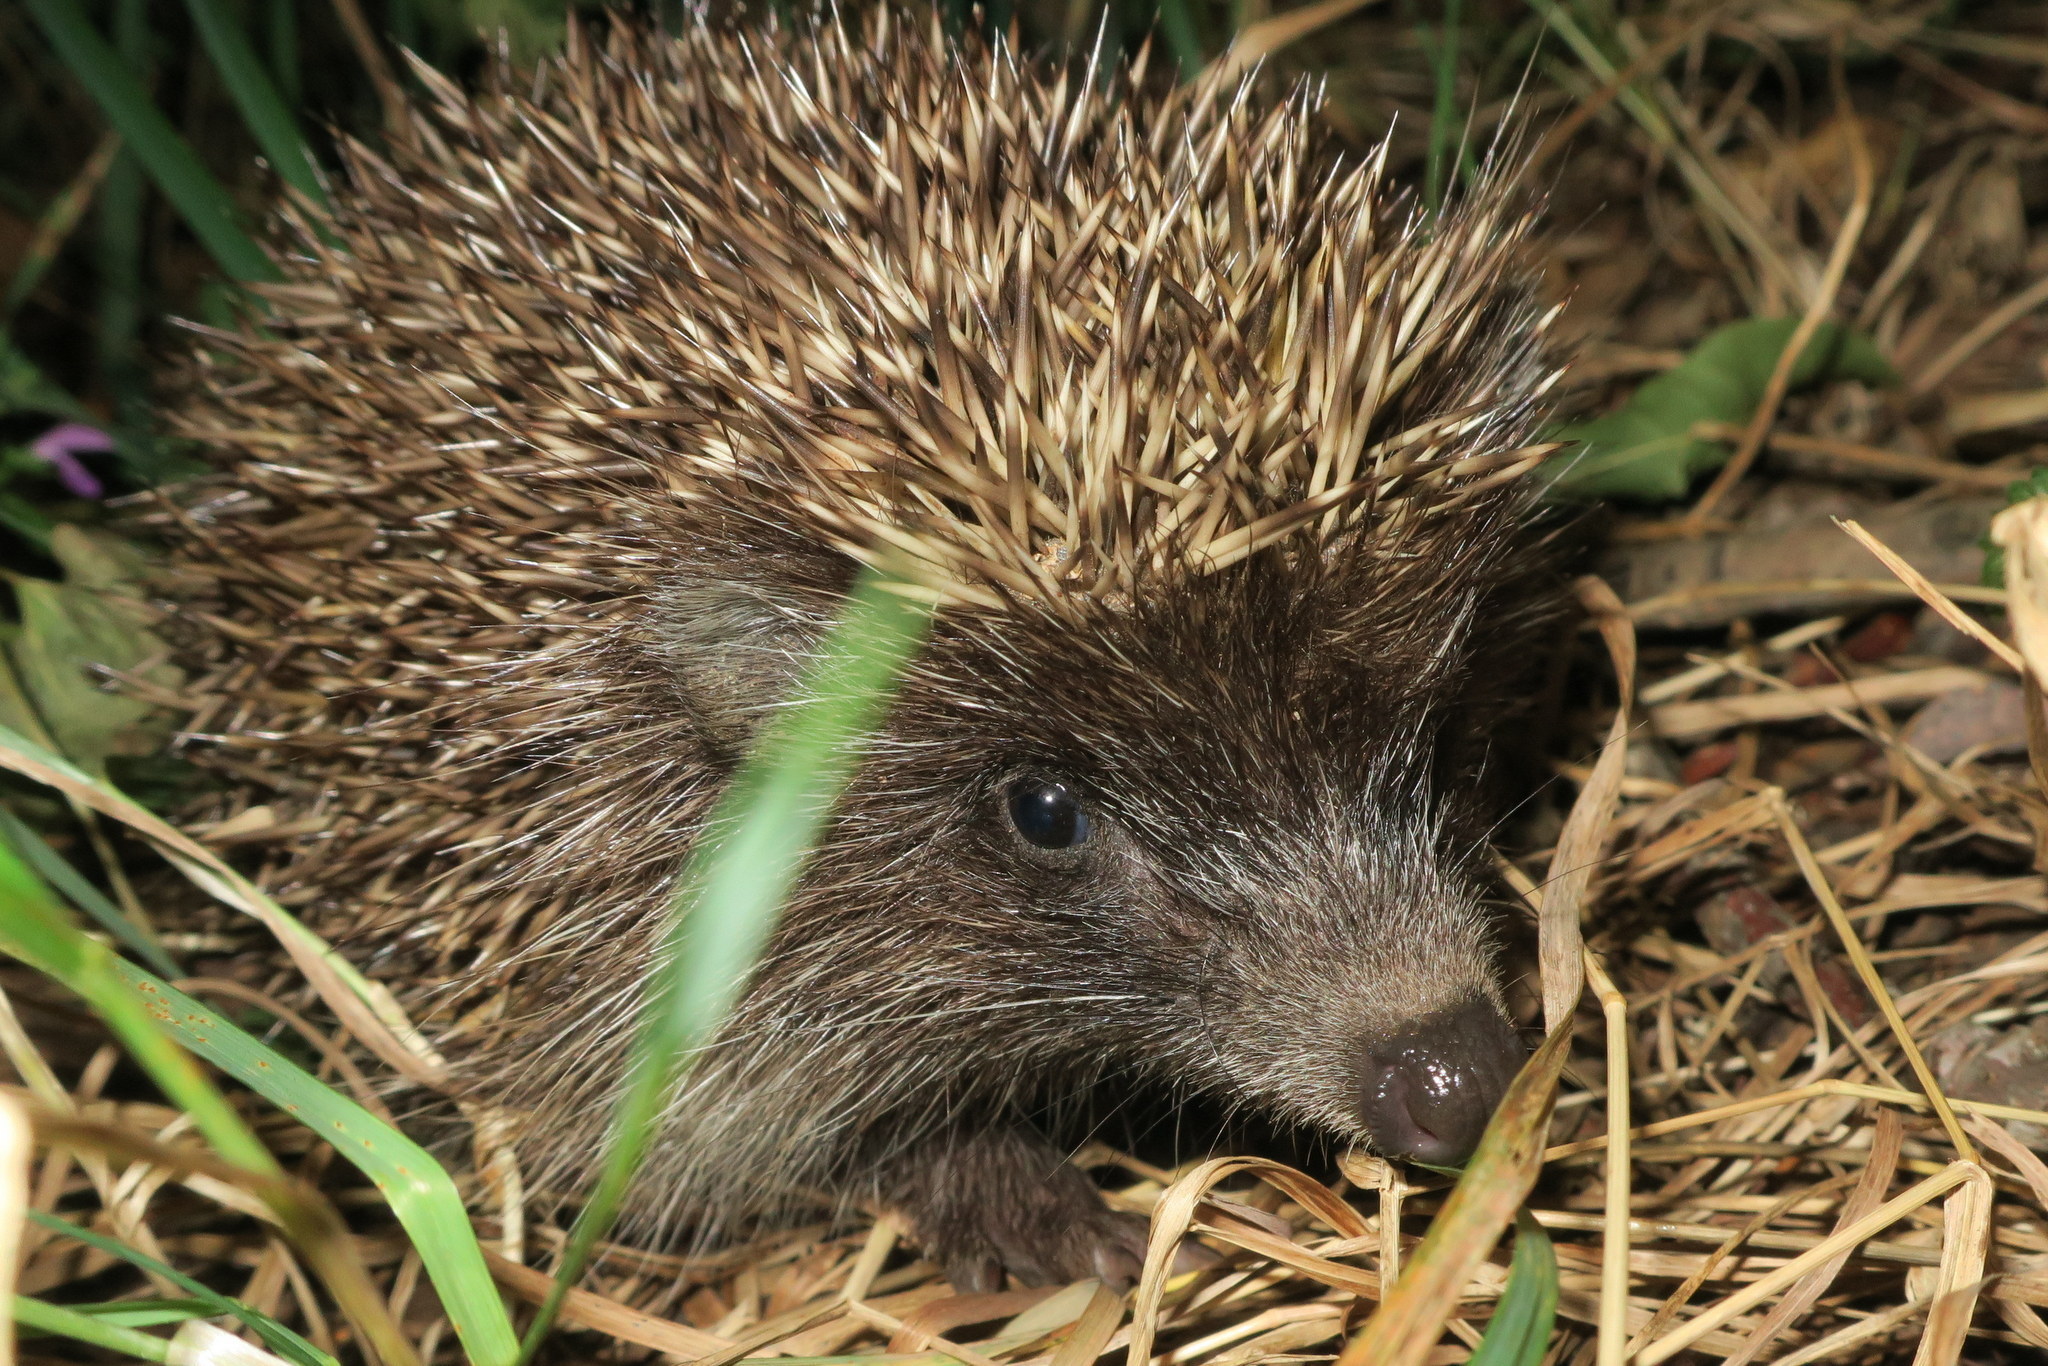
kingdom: Animalia
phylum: Chordata
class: Mammalia
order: Erinaceomorpha
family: Erinaceidae
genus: Erinaceus
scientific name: Erinaceus roumanicus
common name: Northern white-breasted hedgehog
